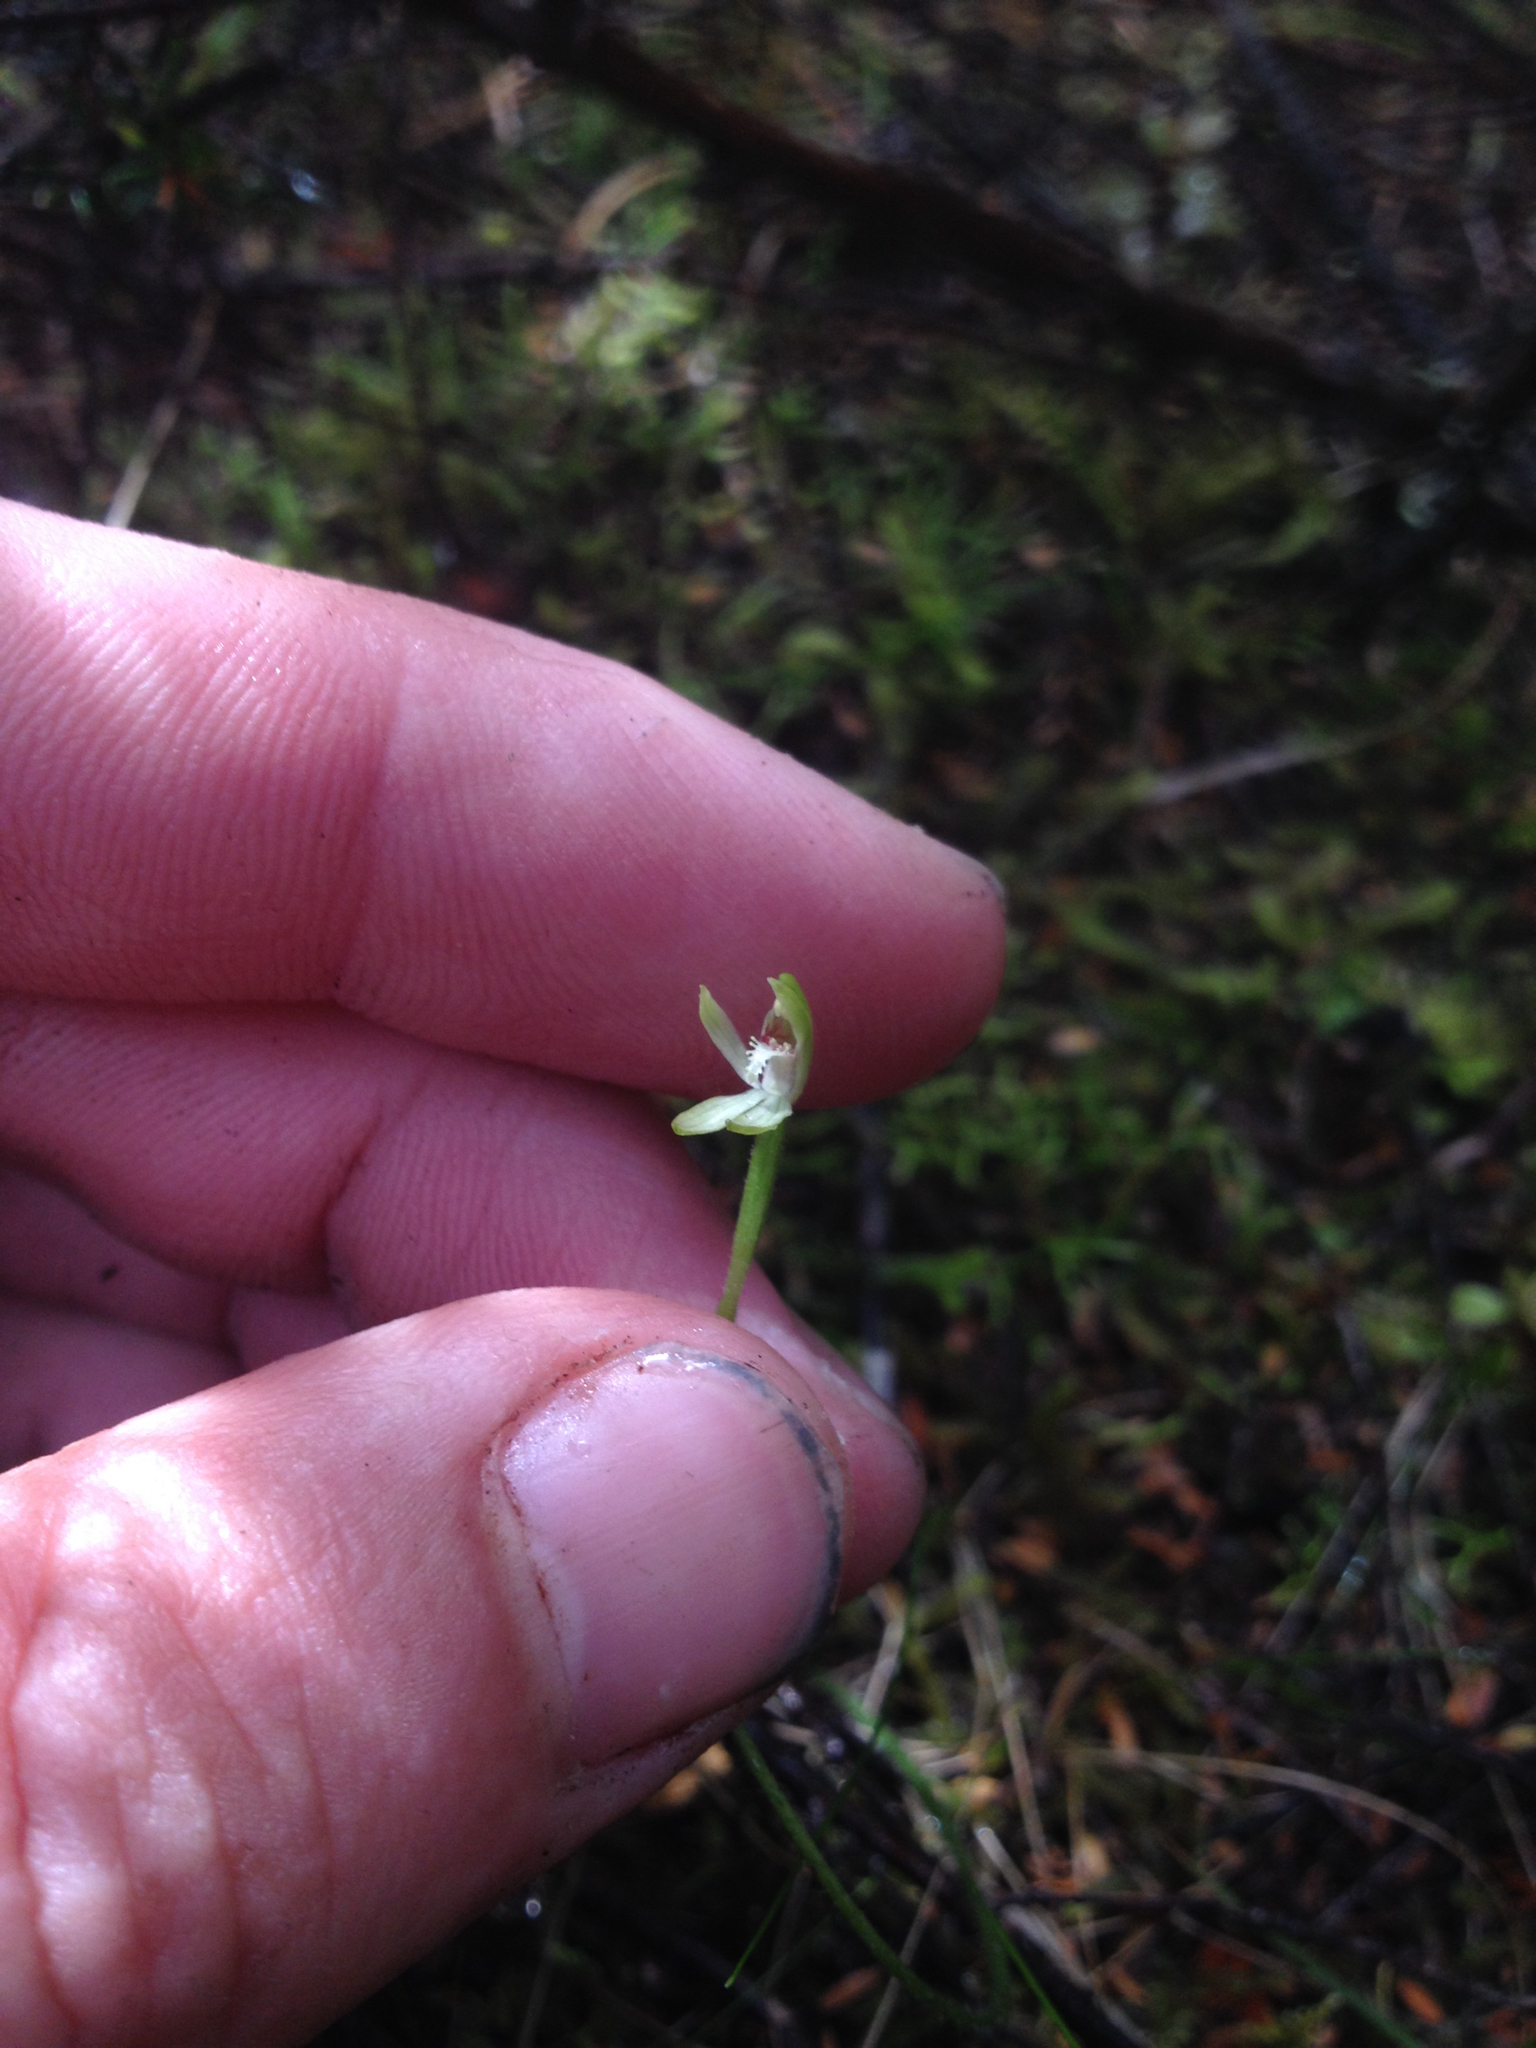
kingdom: Plantae
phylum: Tracheophyta
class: Liliopsida
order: Asparagales
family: Orchidaceae
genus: Caladenia
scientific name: Caladenia chlorostyla
